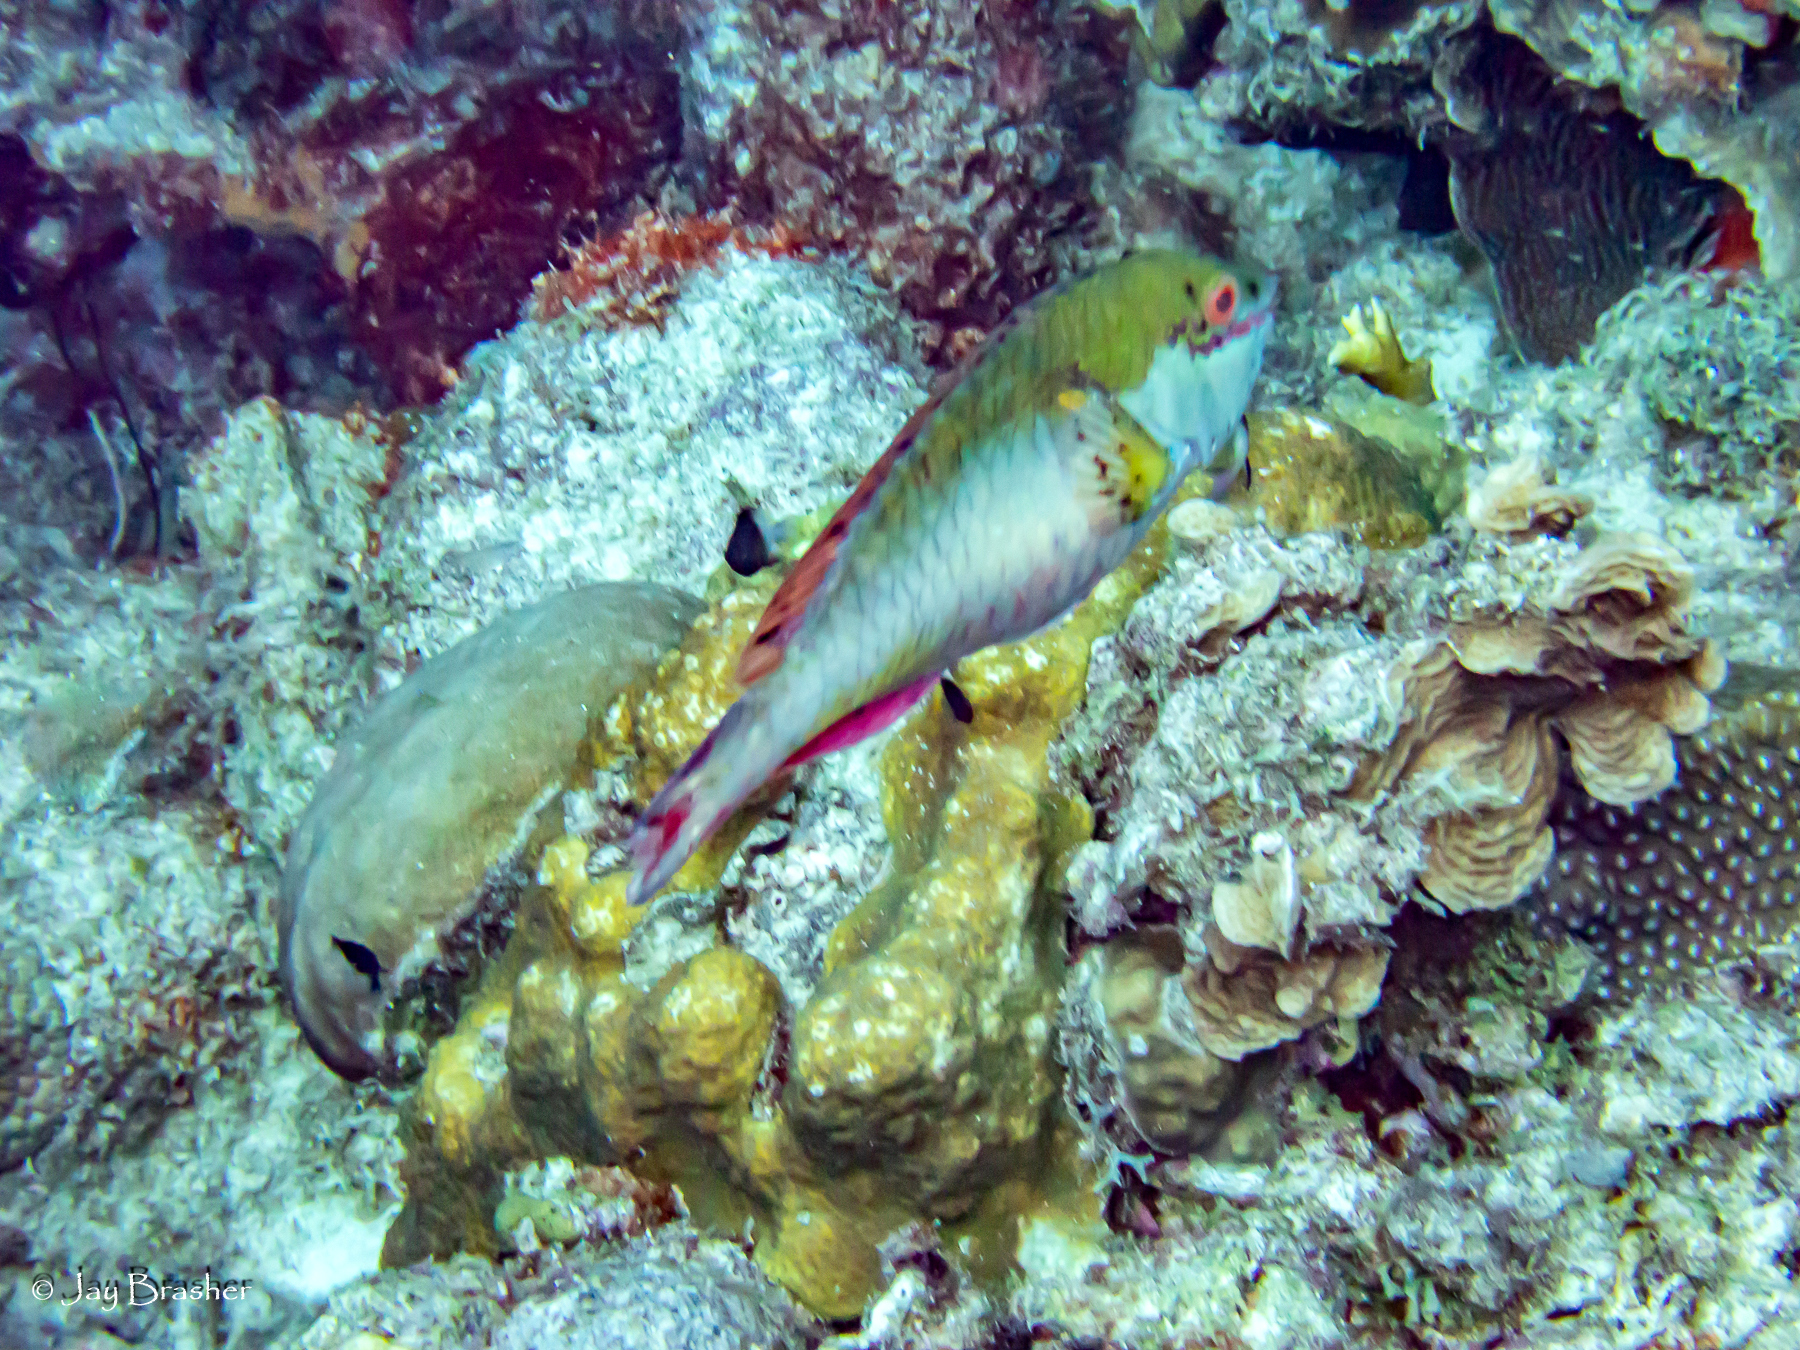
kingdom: Animalia
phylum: Chordata
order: Perciformes
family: Scaridae
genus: Sparisoma
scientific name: Sparisoma aurofrenatum
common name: Redband parrotfish
